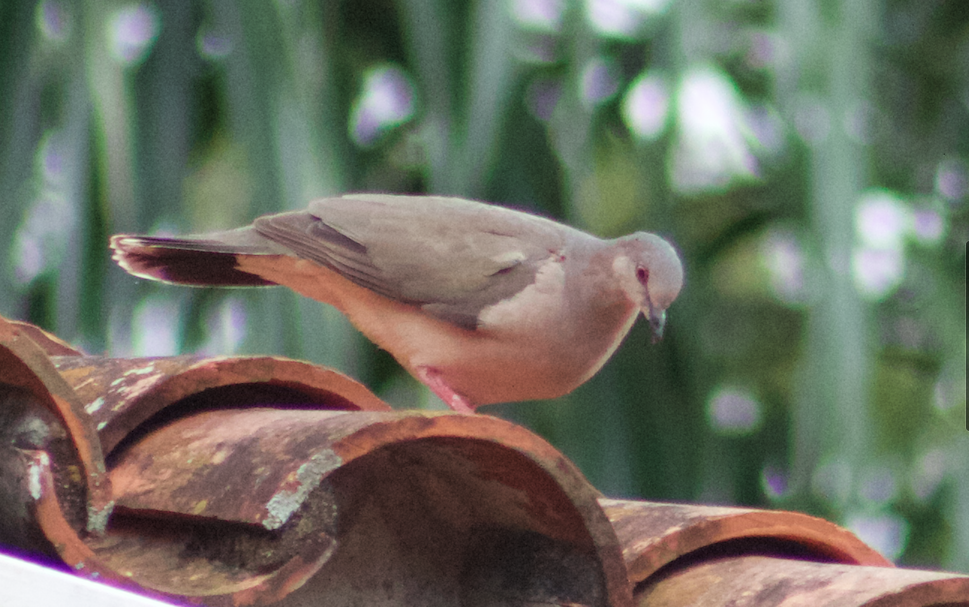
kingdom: Animalia
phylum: Chordata
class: Aves
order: Columbiformes
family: Columbidae
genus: Leptotila
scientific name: Leptotila verreauxi
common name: White-tipped dove
